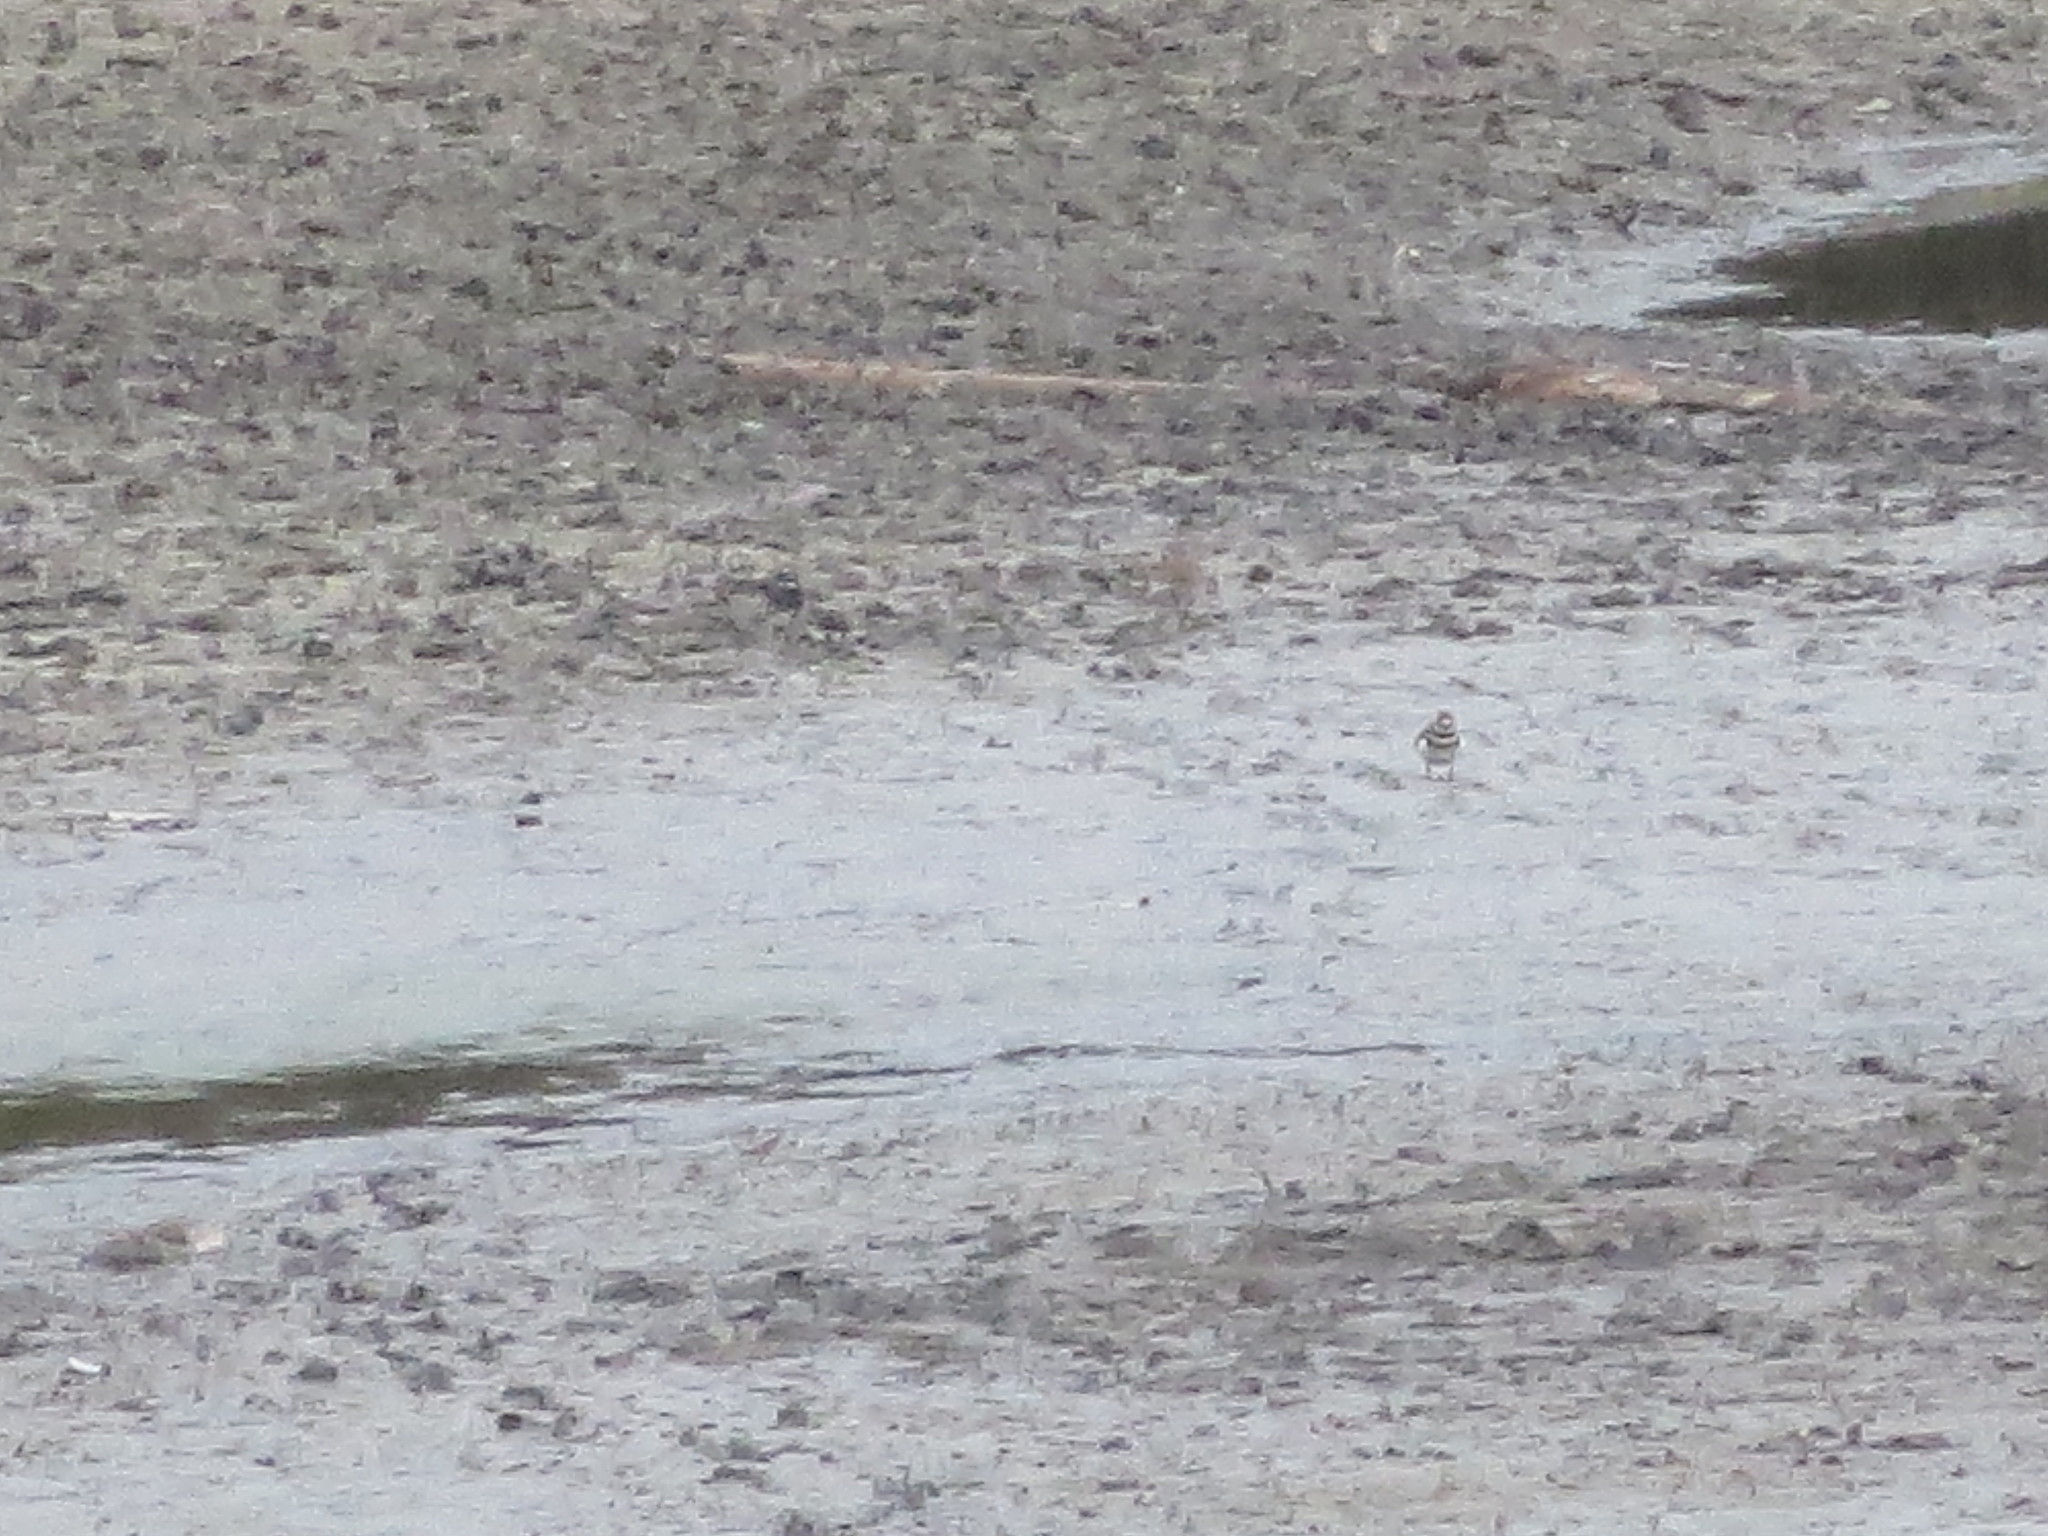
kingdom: Animalia
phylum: Chordata
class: Aves
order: Charadriiformes
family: Charadriidae
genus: Charadrius
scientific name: Charadrius vociferus
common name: Killdeer
